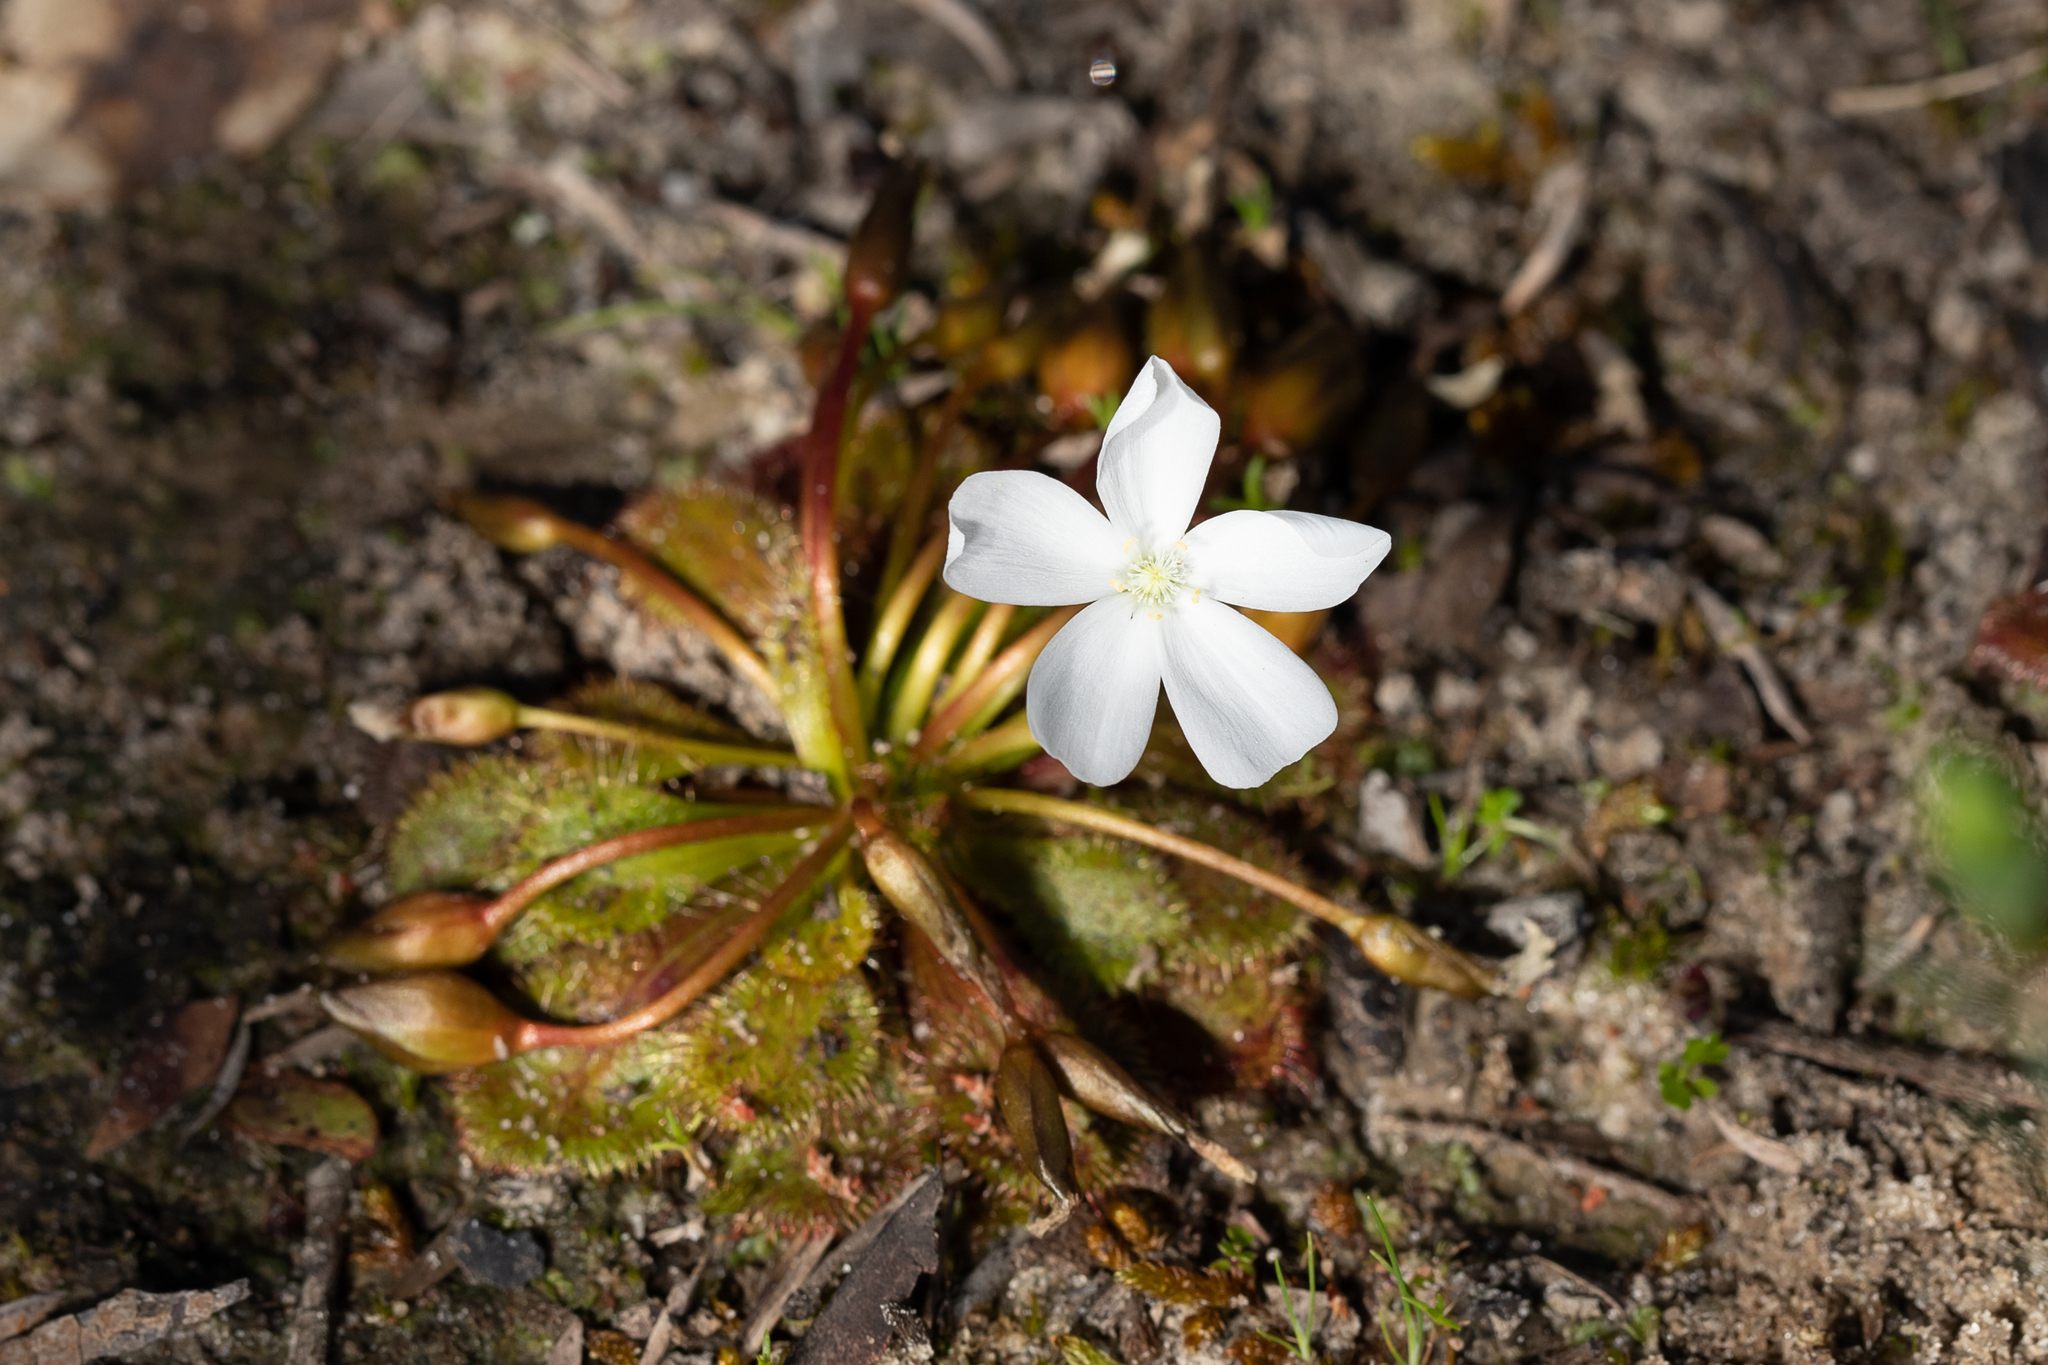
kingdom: Plantae
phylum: Tracheophyta
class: Magnoliopsida
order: Caryophyllales
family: Droseraceae
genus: Drosera
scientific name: Drosera whittakeri
